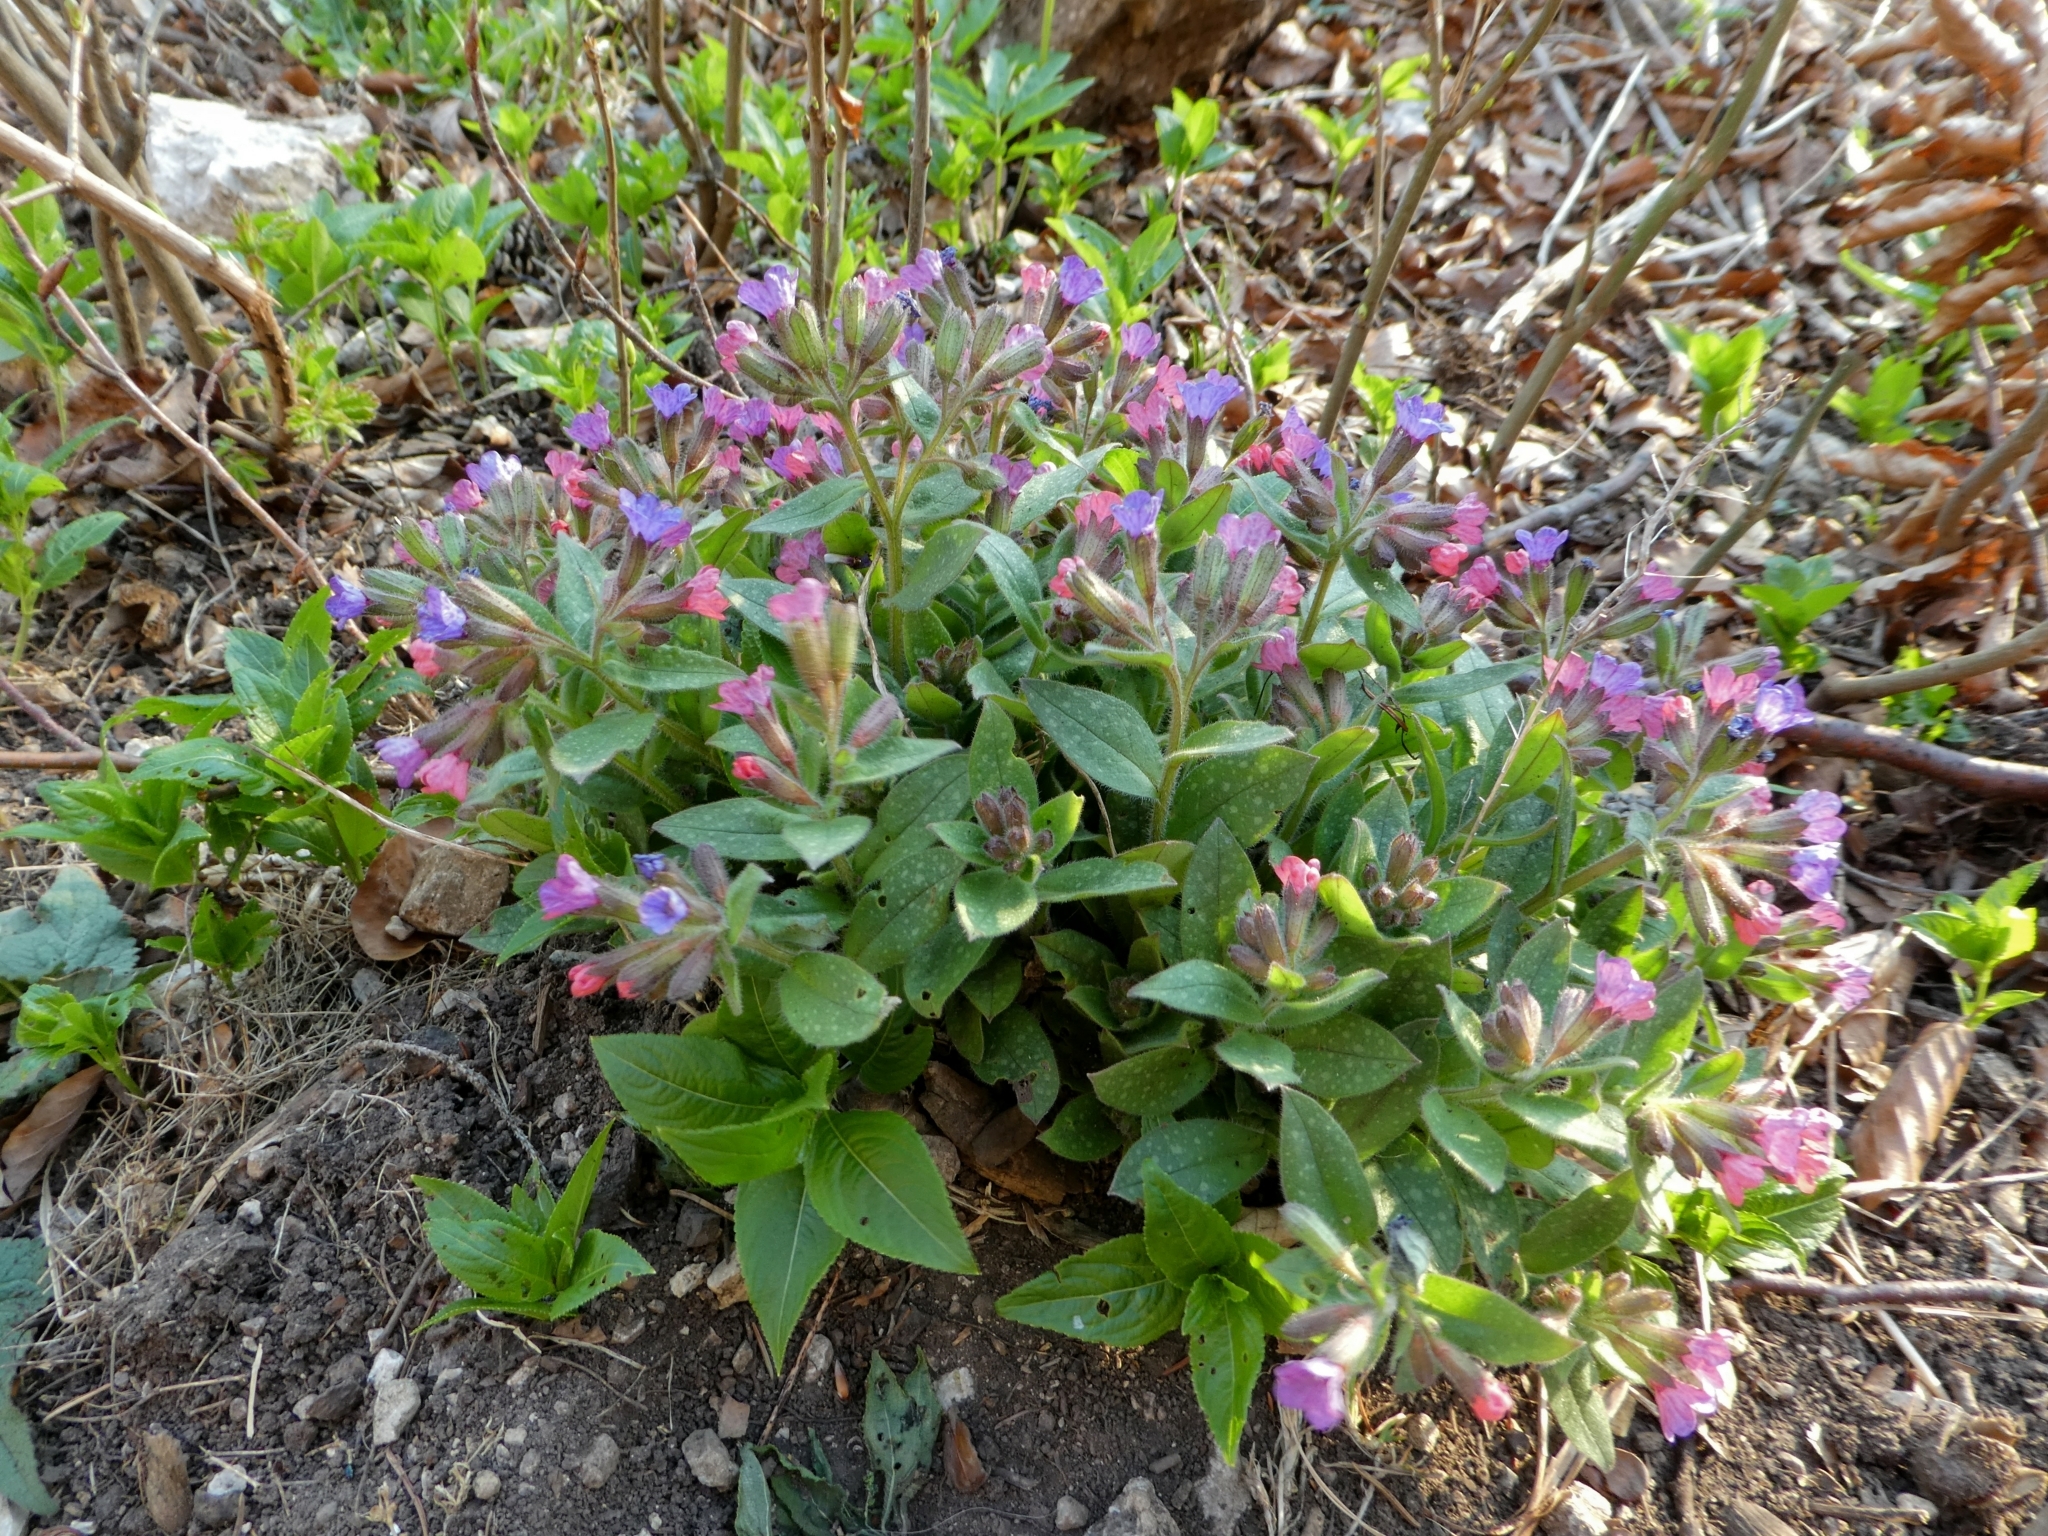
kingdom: Plantae
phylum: Tracheophyta
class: Magnoliopsida
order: Boraginales
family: Boraginaceae
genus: Pulmonaria
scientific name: Pulmonaria officinalis
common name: Lungwort
